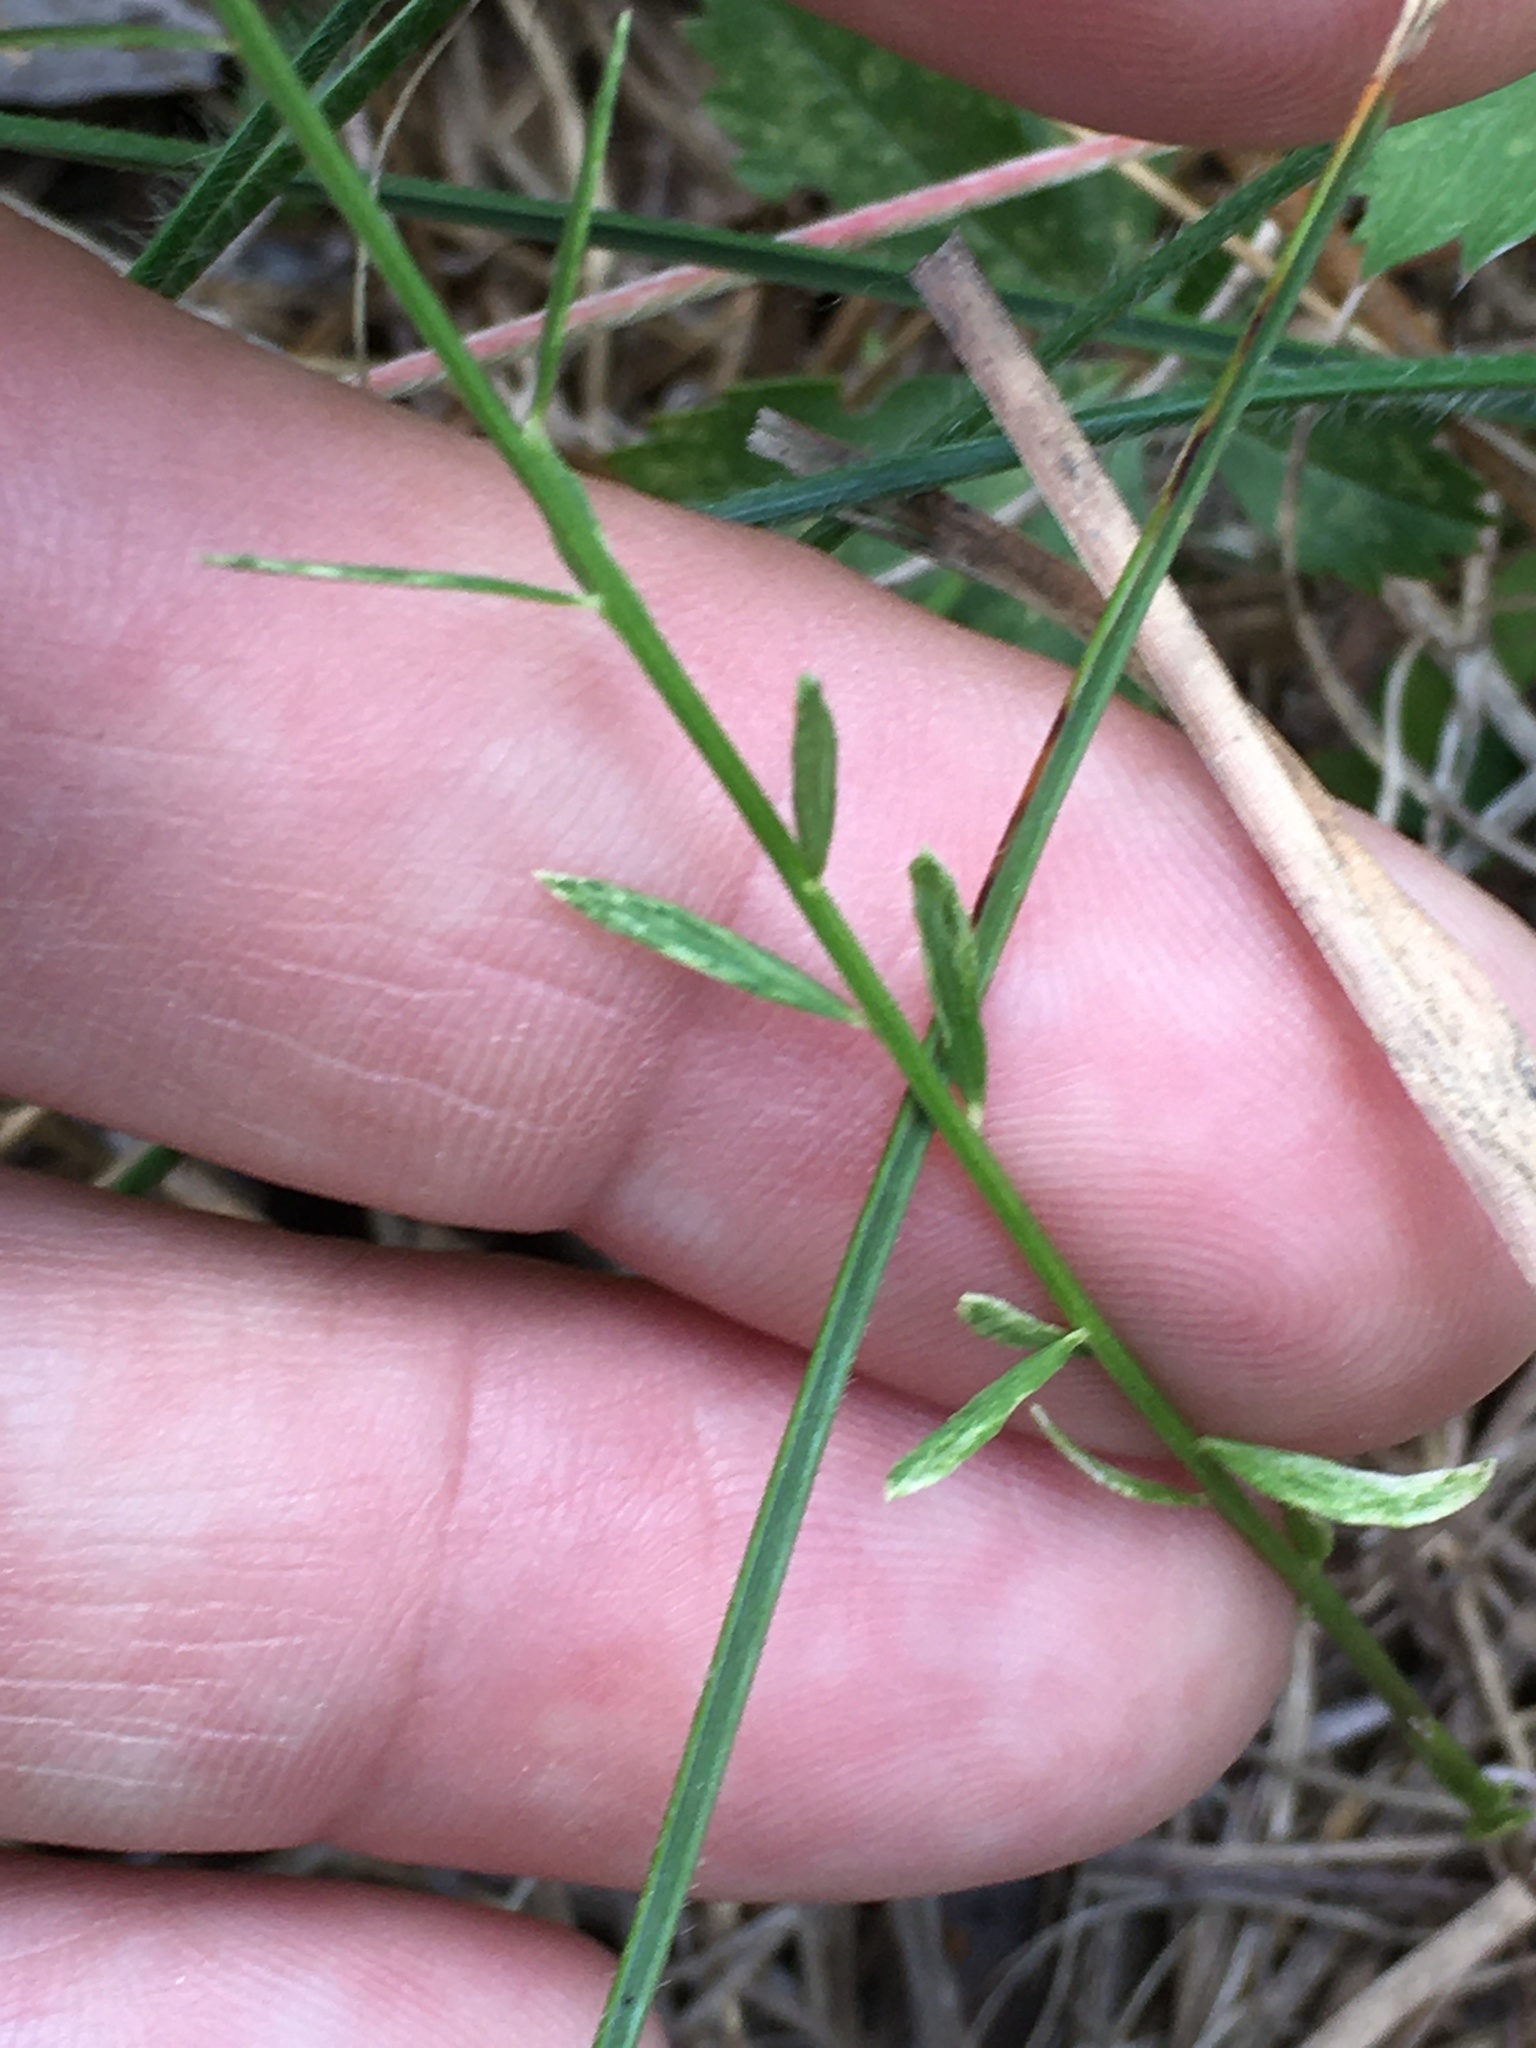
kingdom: Plantae
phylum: Tracheophyta
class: Magnoliopsida
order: Fabales
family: Polygalaceae
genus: Polygala
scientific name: Polygala curtissii
